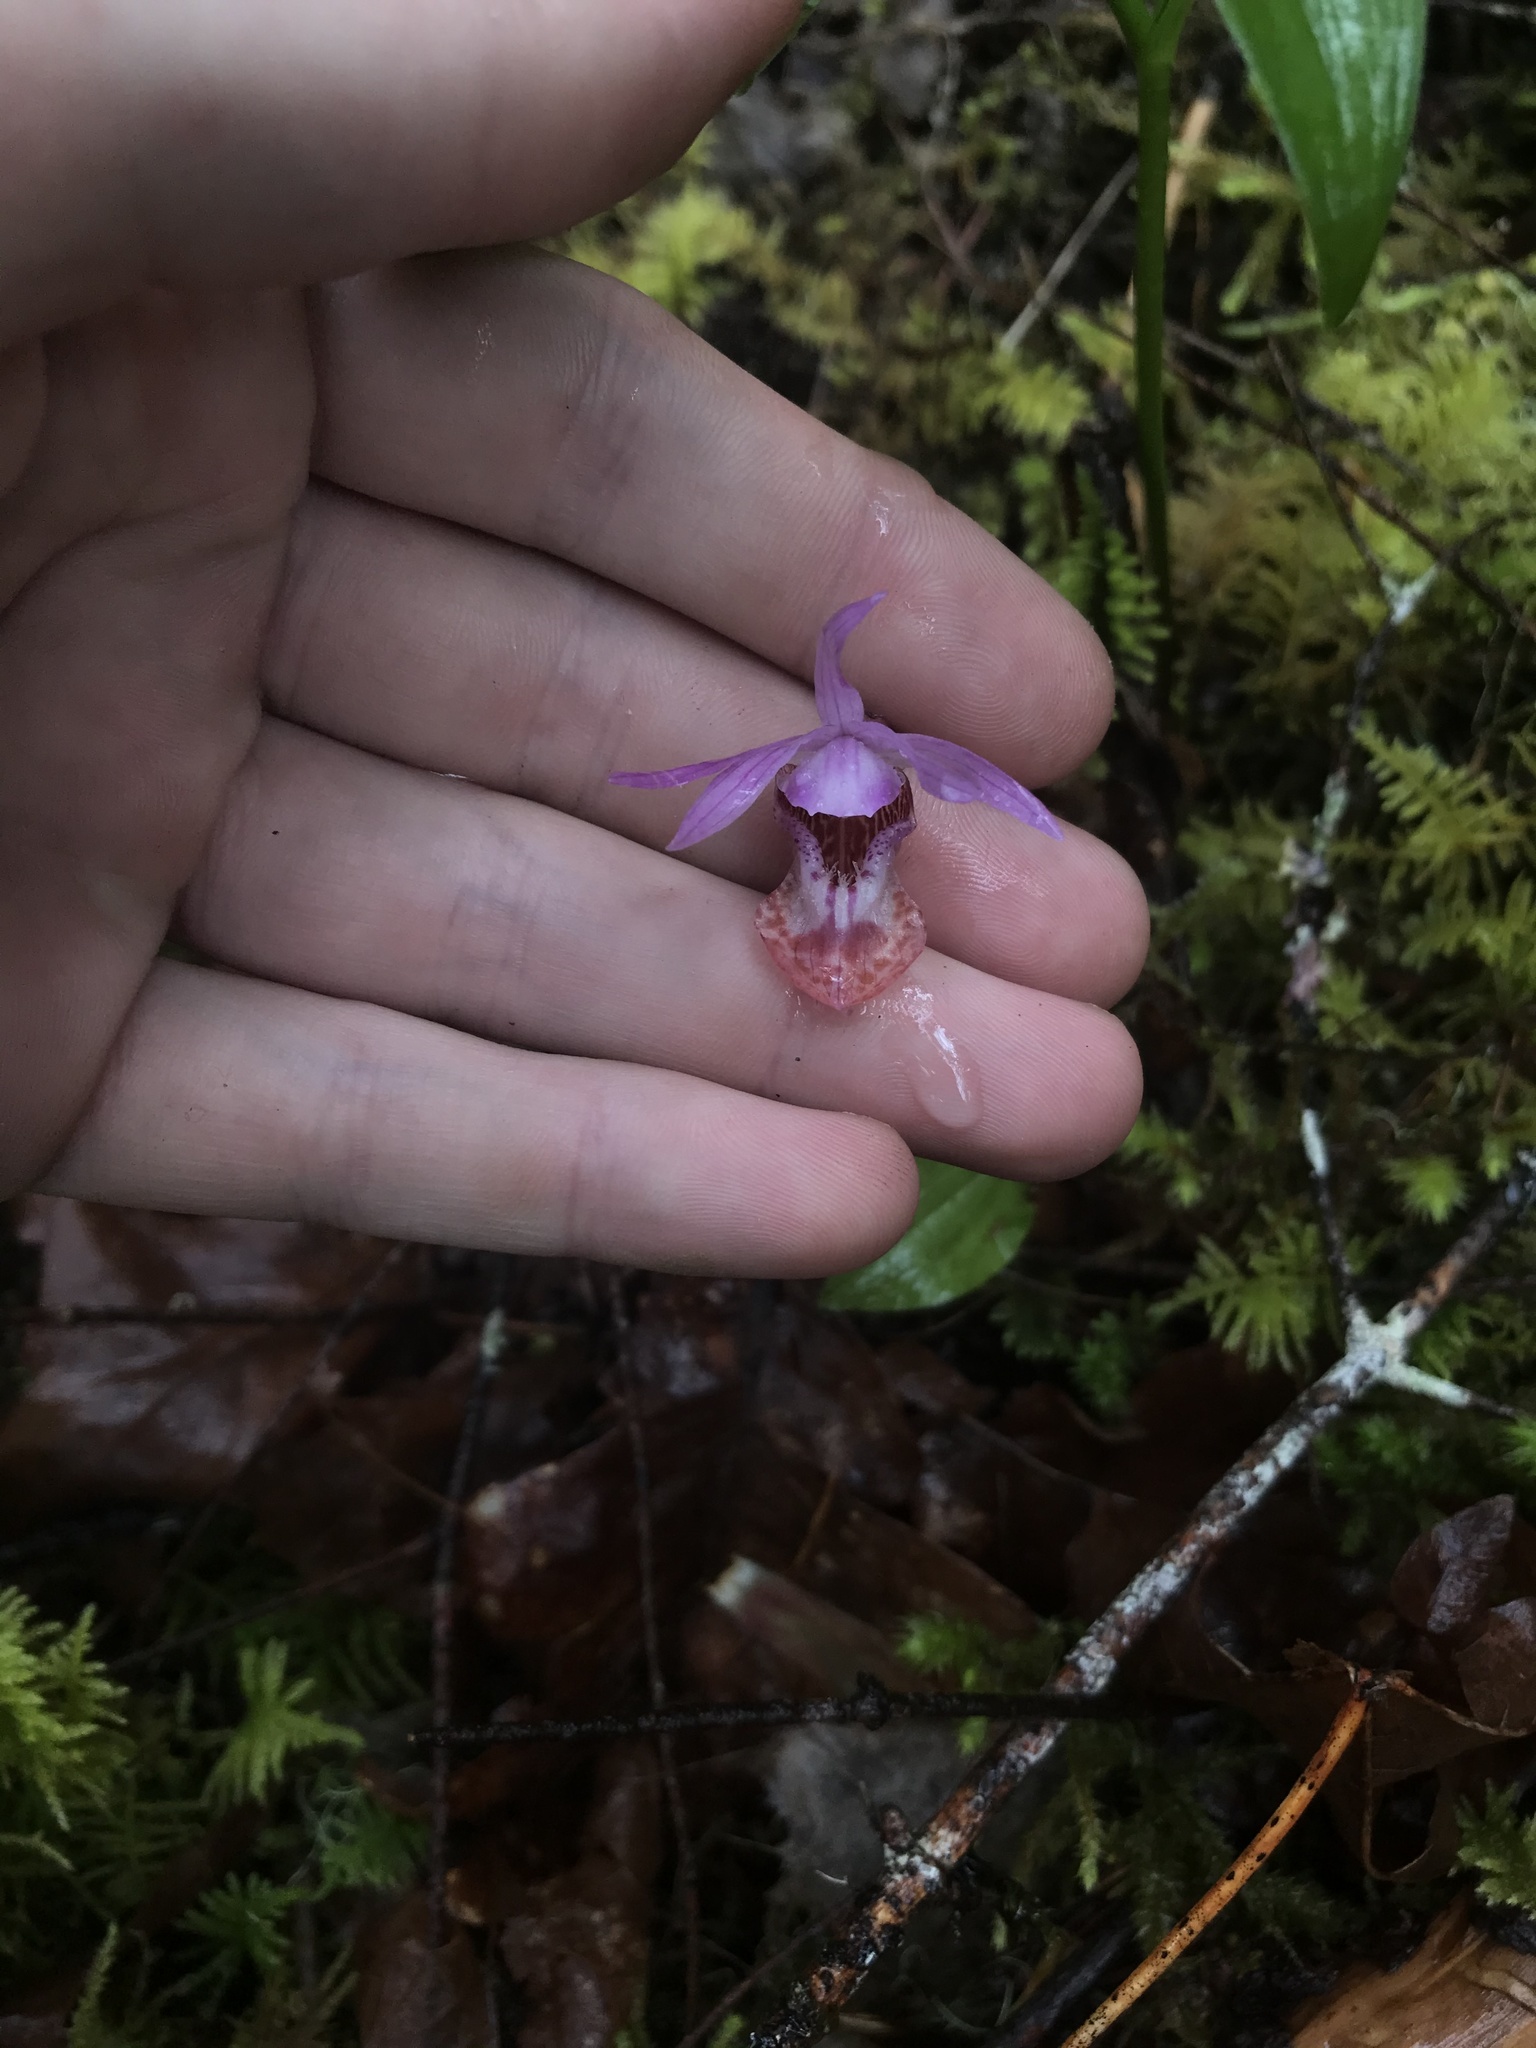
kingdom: Plantae
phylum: Tracheophyta
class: Liliopsida
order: Asparagales
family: Orchidaceae
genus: Calypso
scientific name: Calypso bulbosa
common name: Calypso
